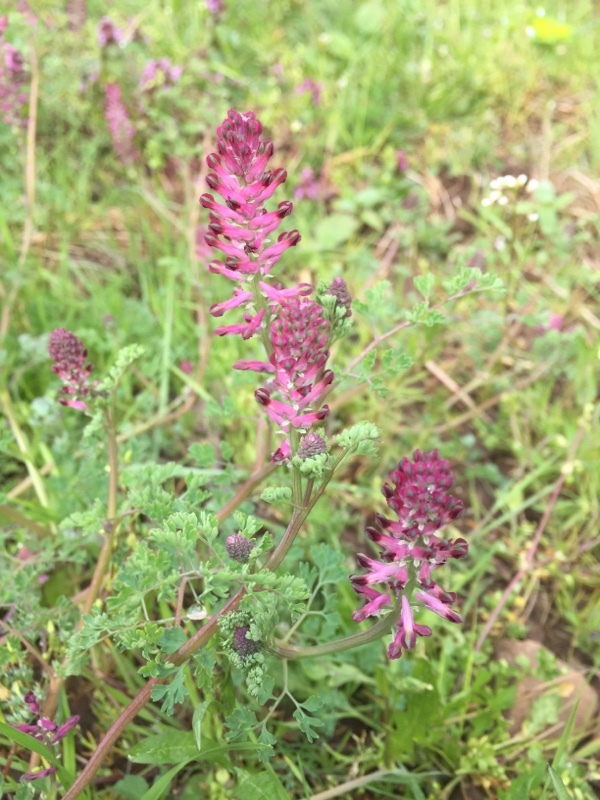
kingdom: Plantae
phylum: Tracheophyta
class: Magnoliopsida
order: Ranunculales
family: Papaveraceae
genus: Fumaria
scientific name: Fumaria officinalis
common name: Common fumitory
